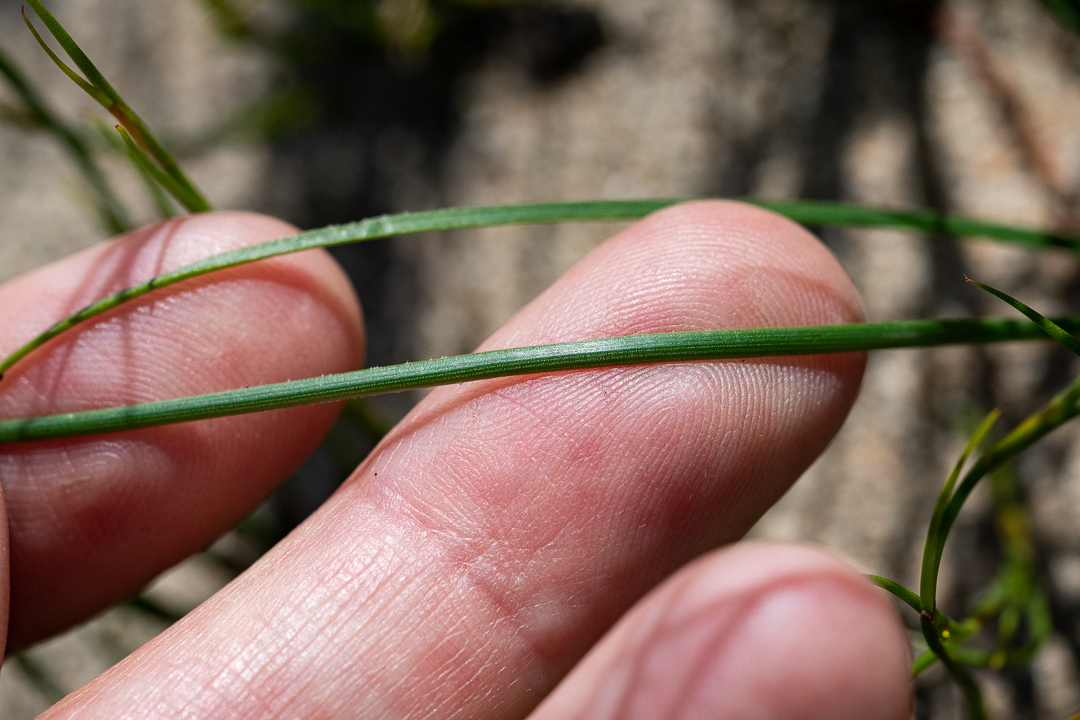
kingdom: Plantae
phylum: Tracheophyta
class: Liliopsida
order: Asparagales
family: Asphodelaceae
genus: Bulbinella
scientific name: Bulbinella trinervis
